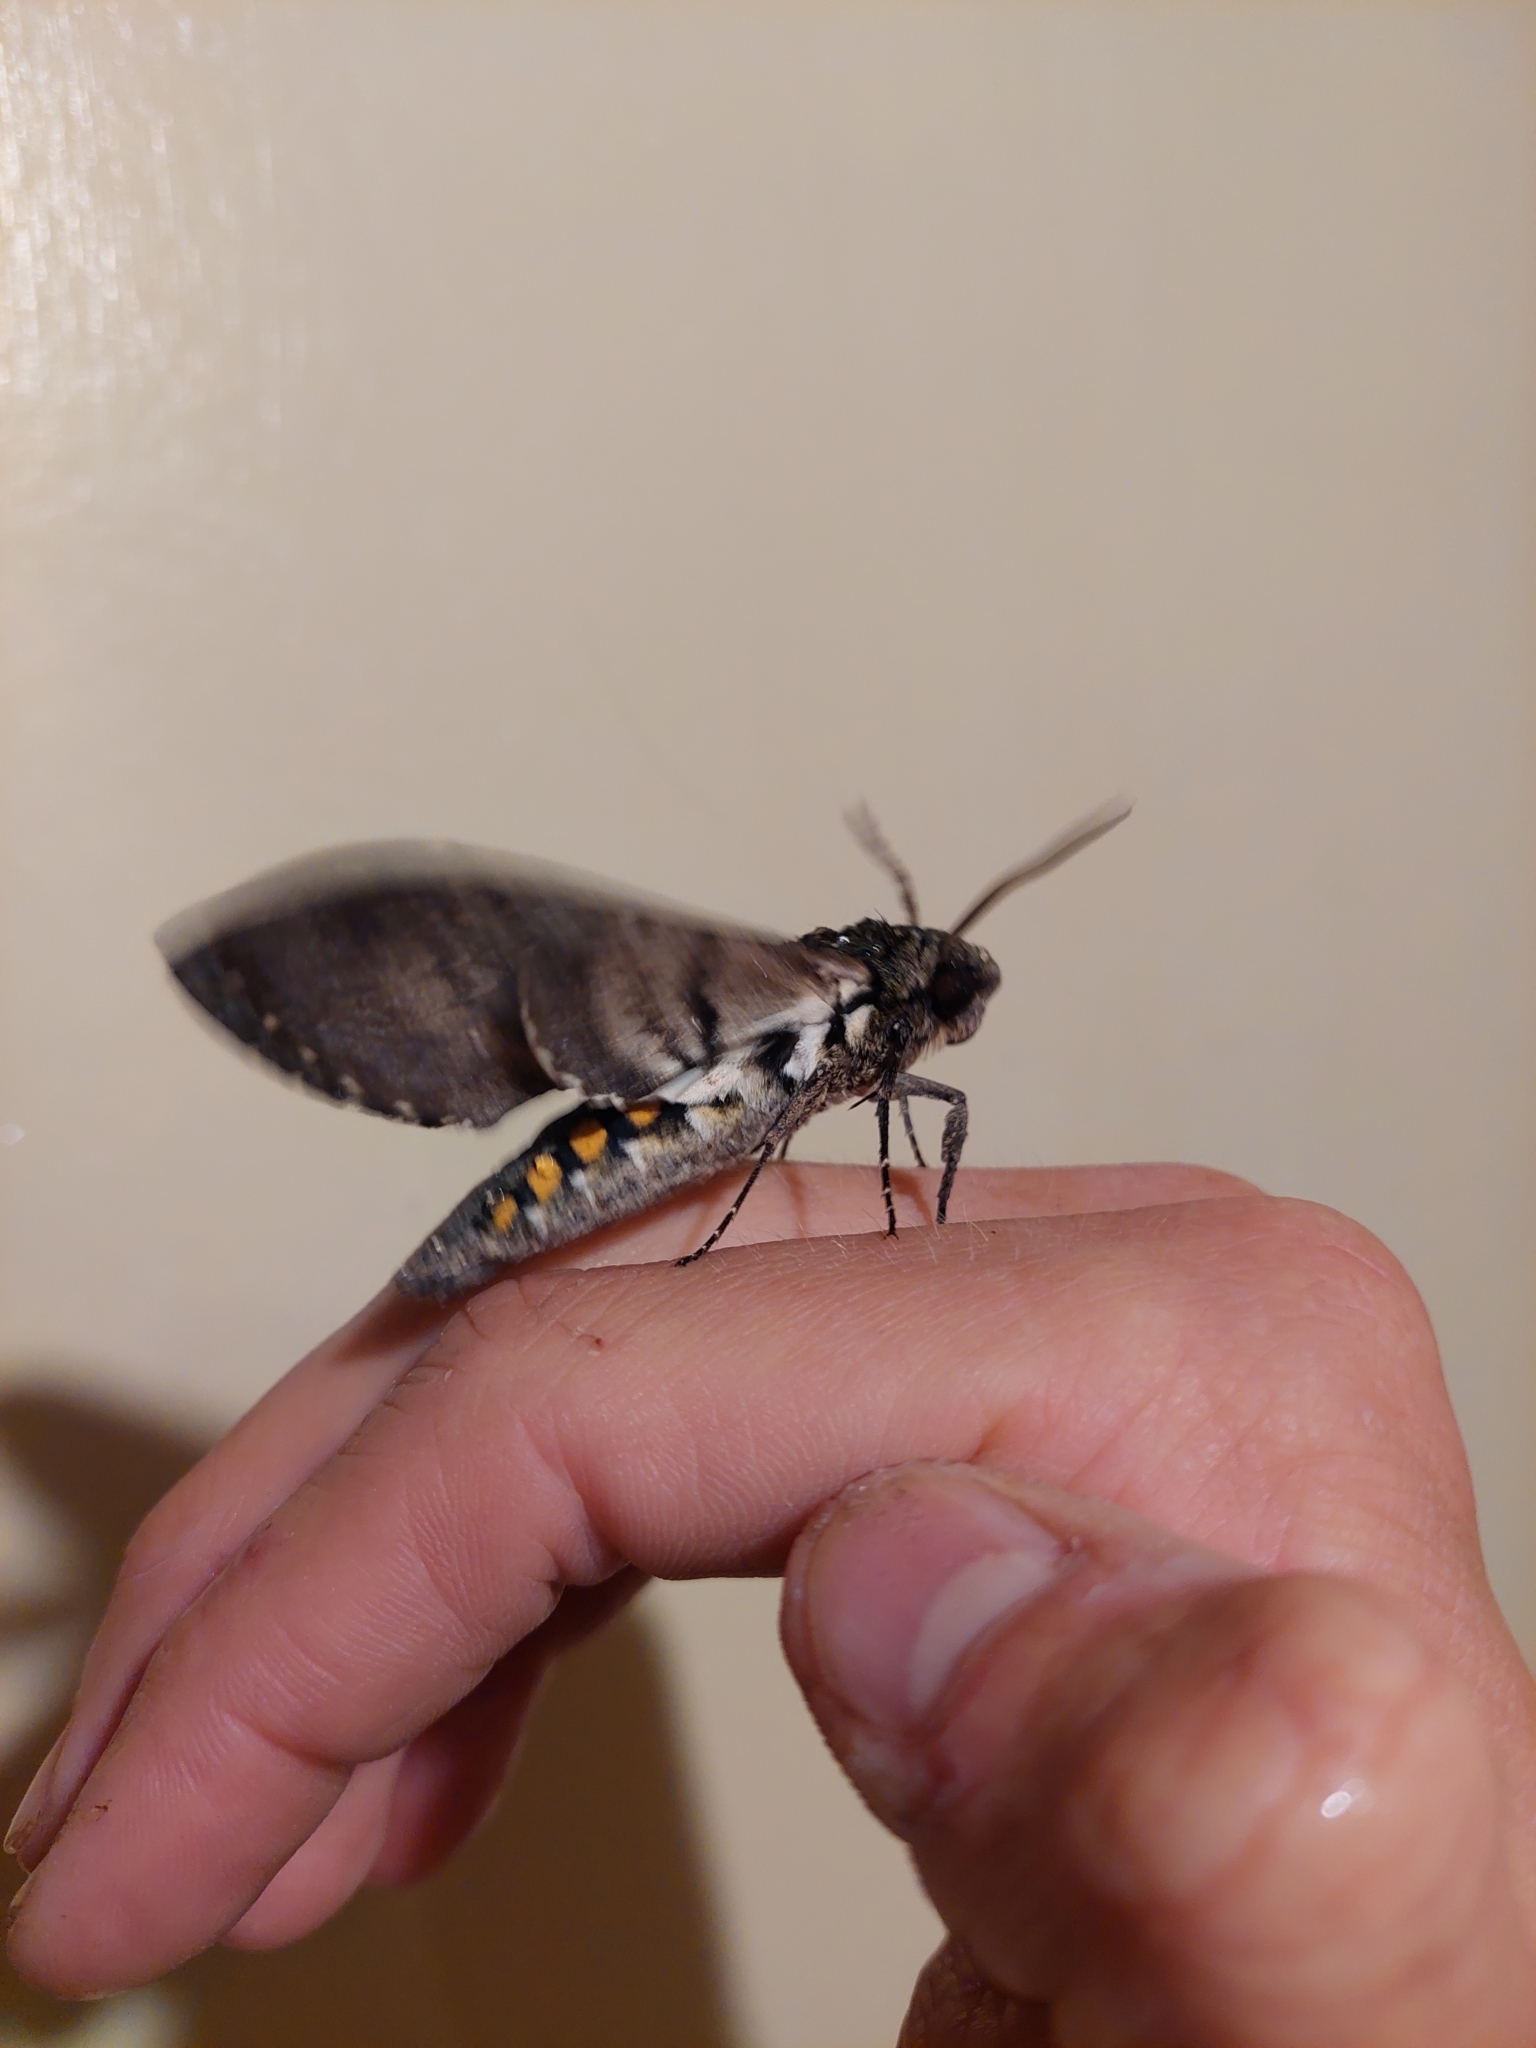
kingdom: Animalia
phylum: Arthropoda
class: Insecta
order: Lepidoptera
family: Sphingidae
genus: Manduca
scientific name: Manduca afflicta
